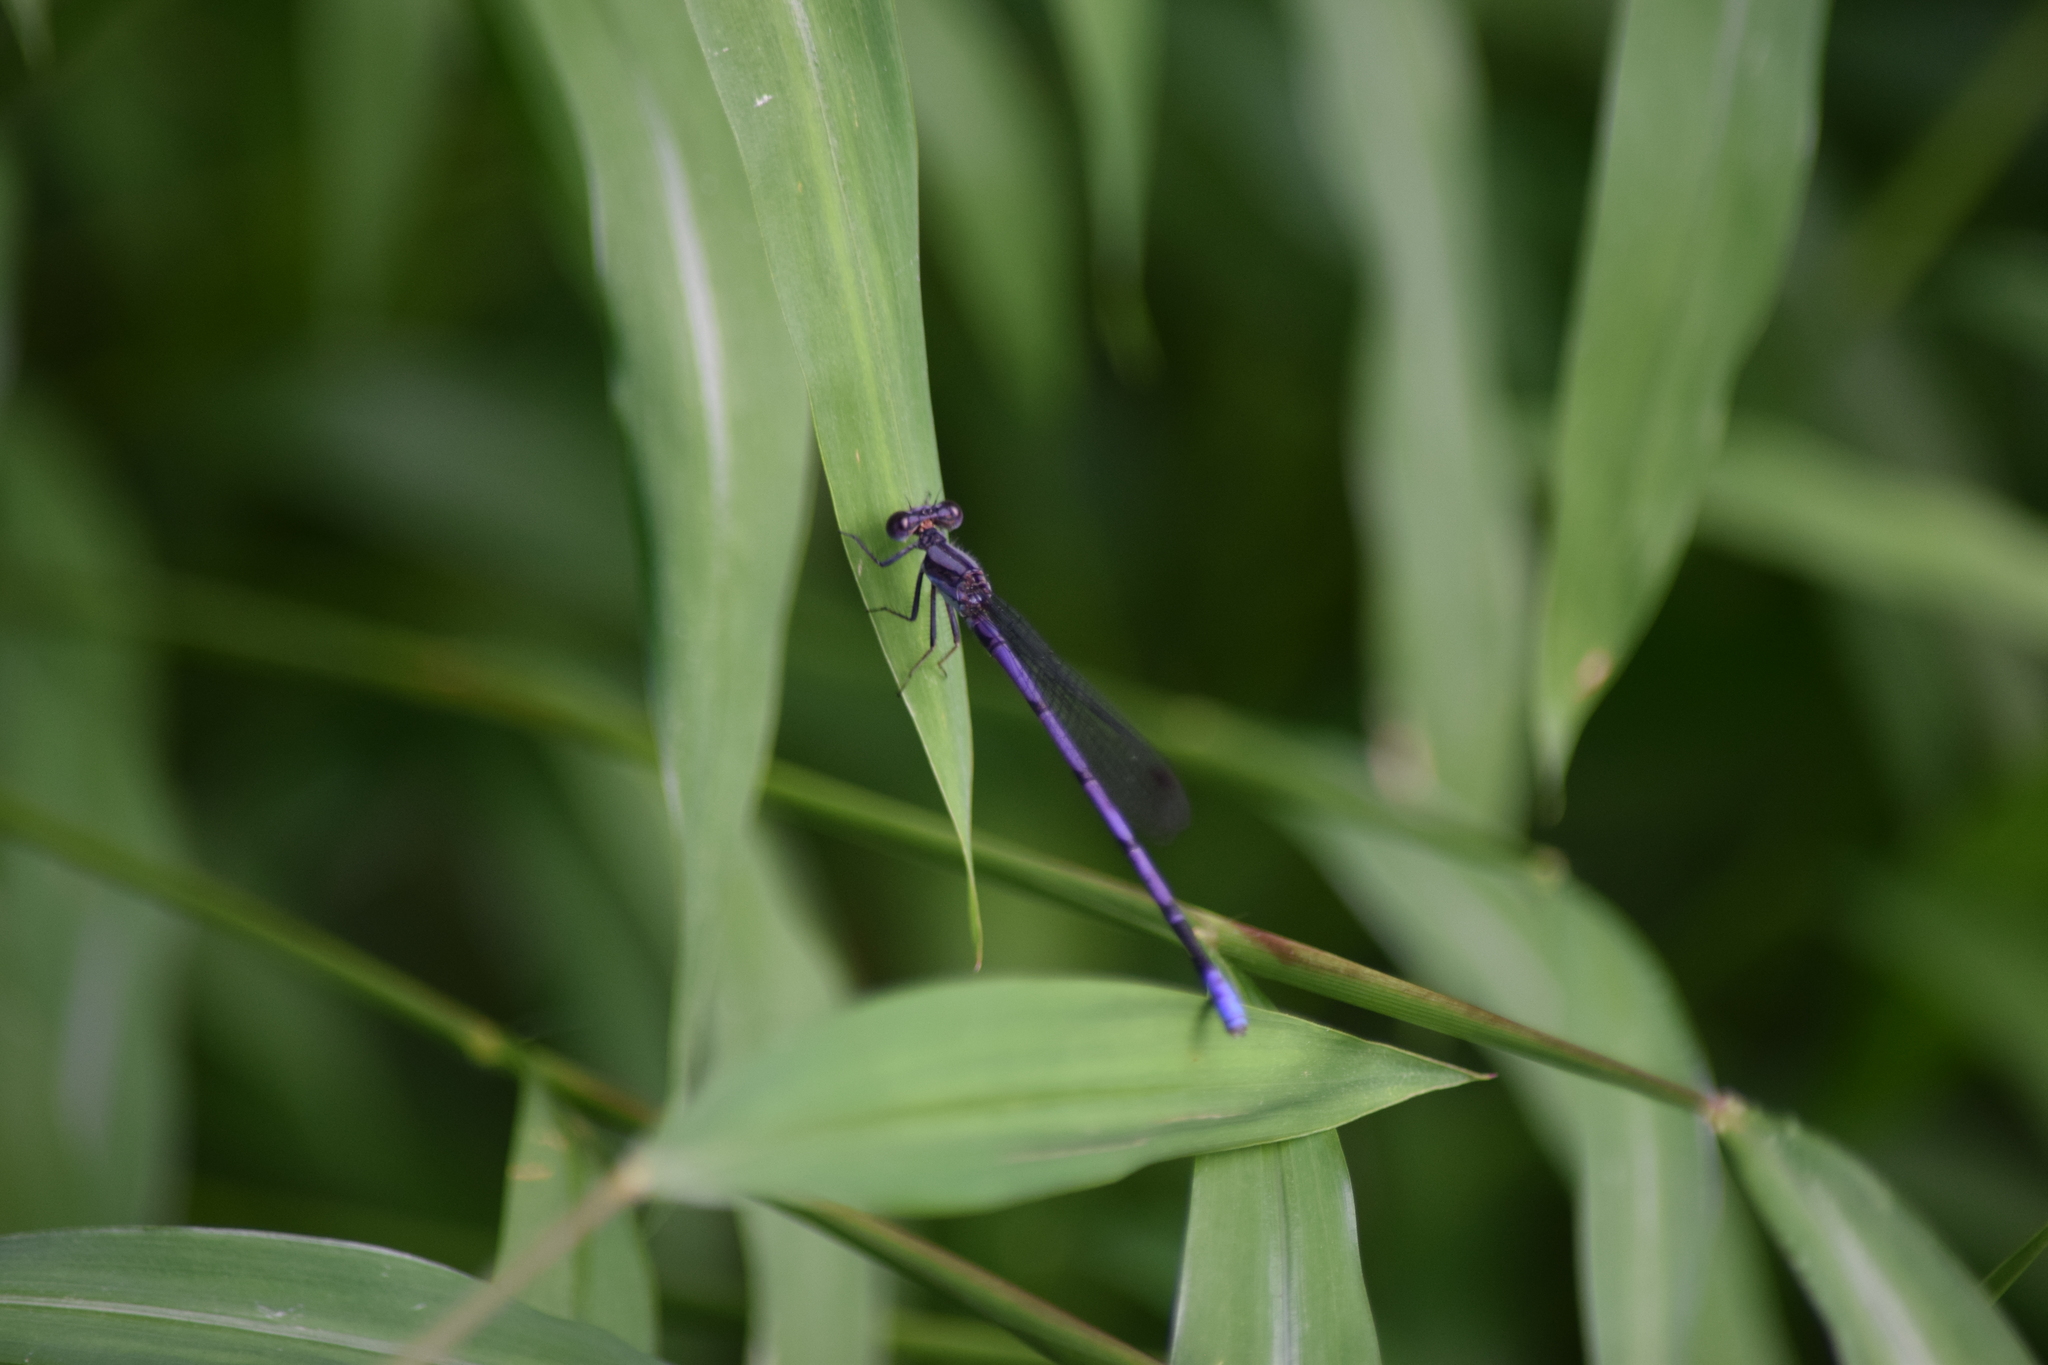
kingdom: Animalia
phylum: Arthropoda
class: Insecta
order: Odonata
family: Coenagrionidae
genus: Argia
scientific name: Argia fumipennis
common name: Variable dancer
